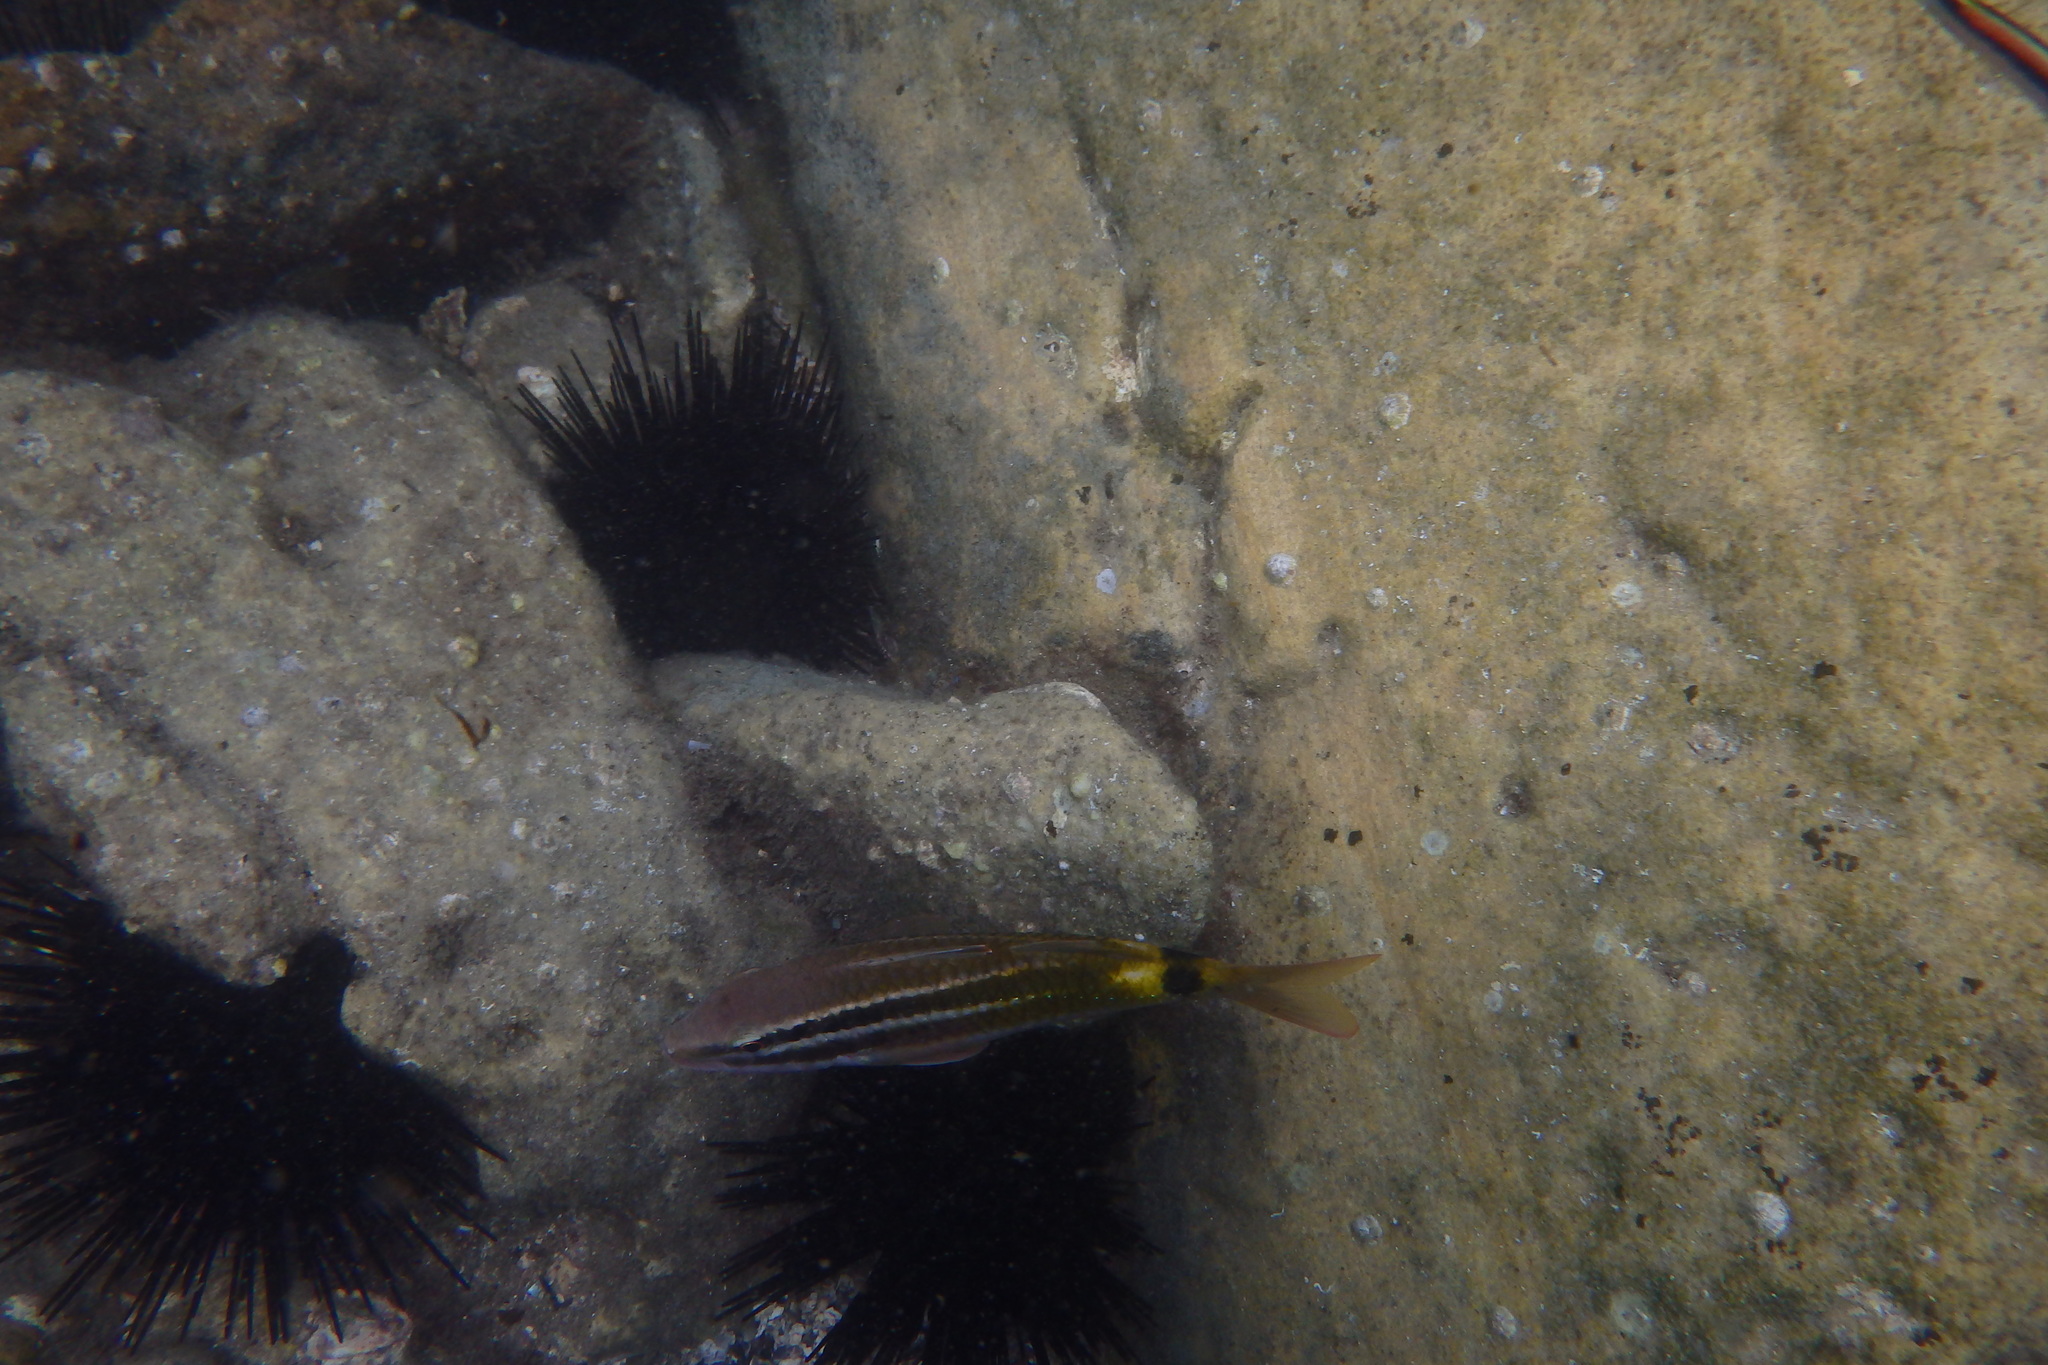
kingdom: Animalia
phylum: Chordata
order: Perciformes
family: Mullidae
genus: Parupeneus
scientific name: Parupeneus spilurus
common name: Blackspot goatfish
